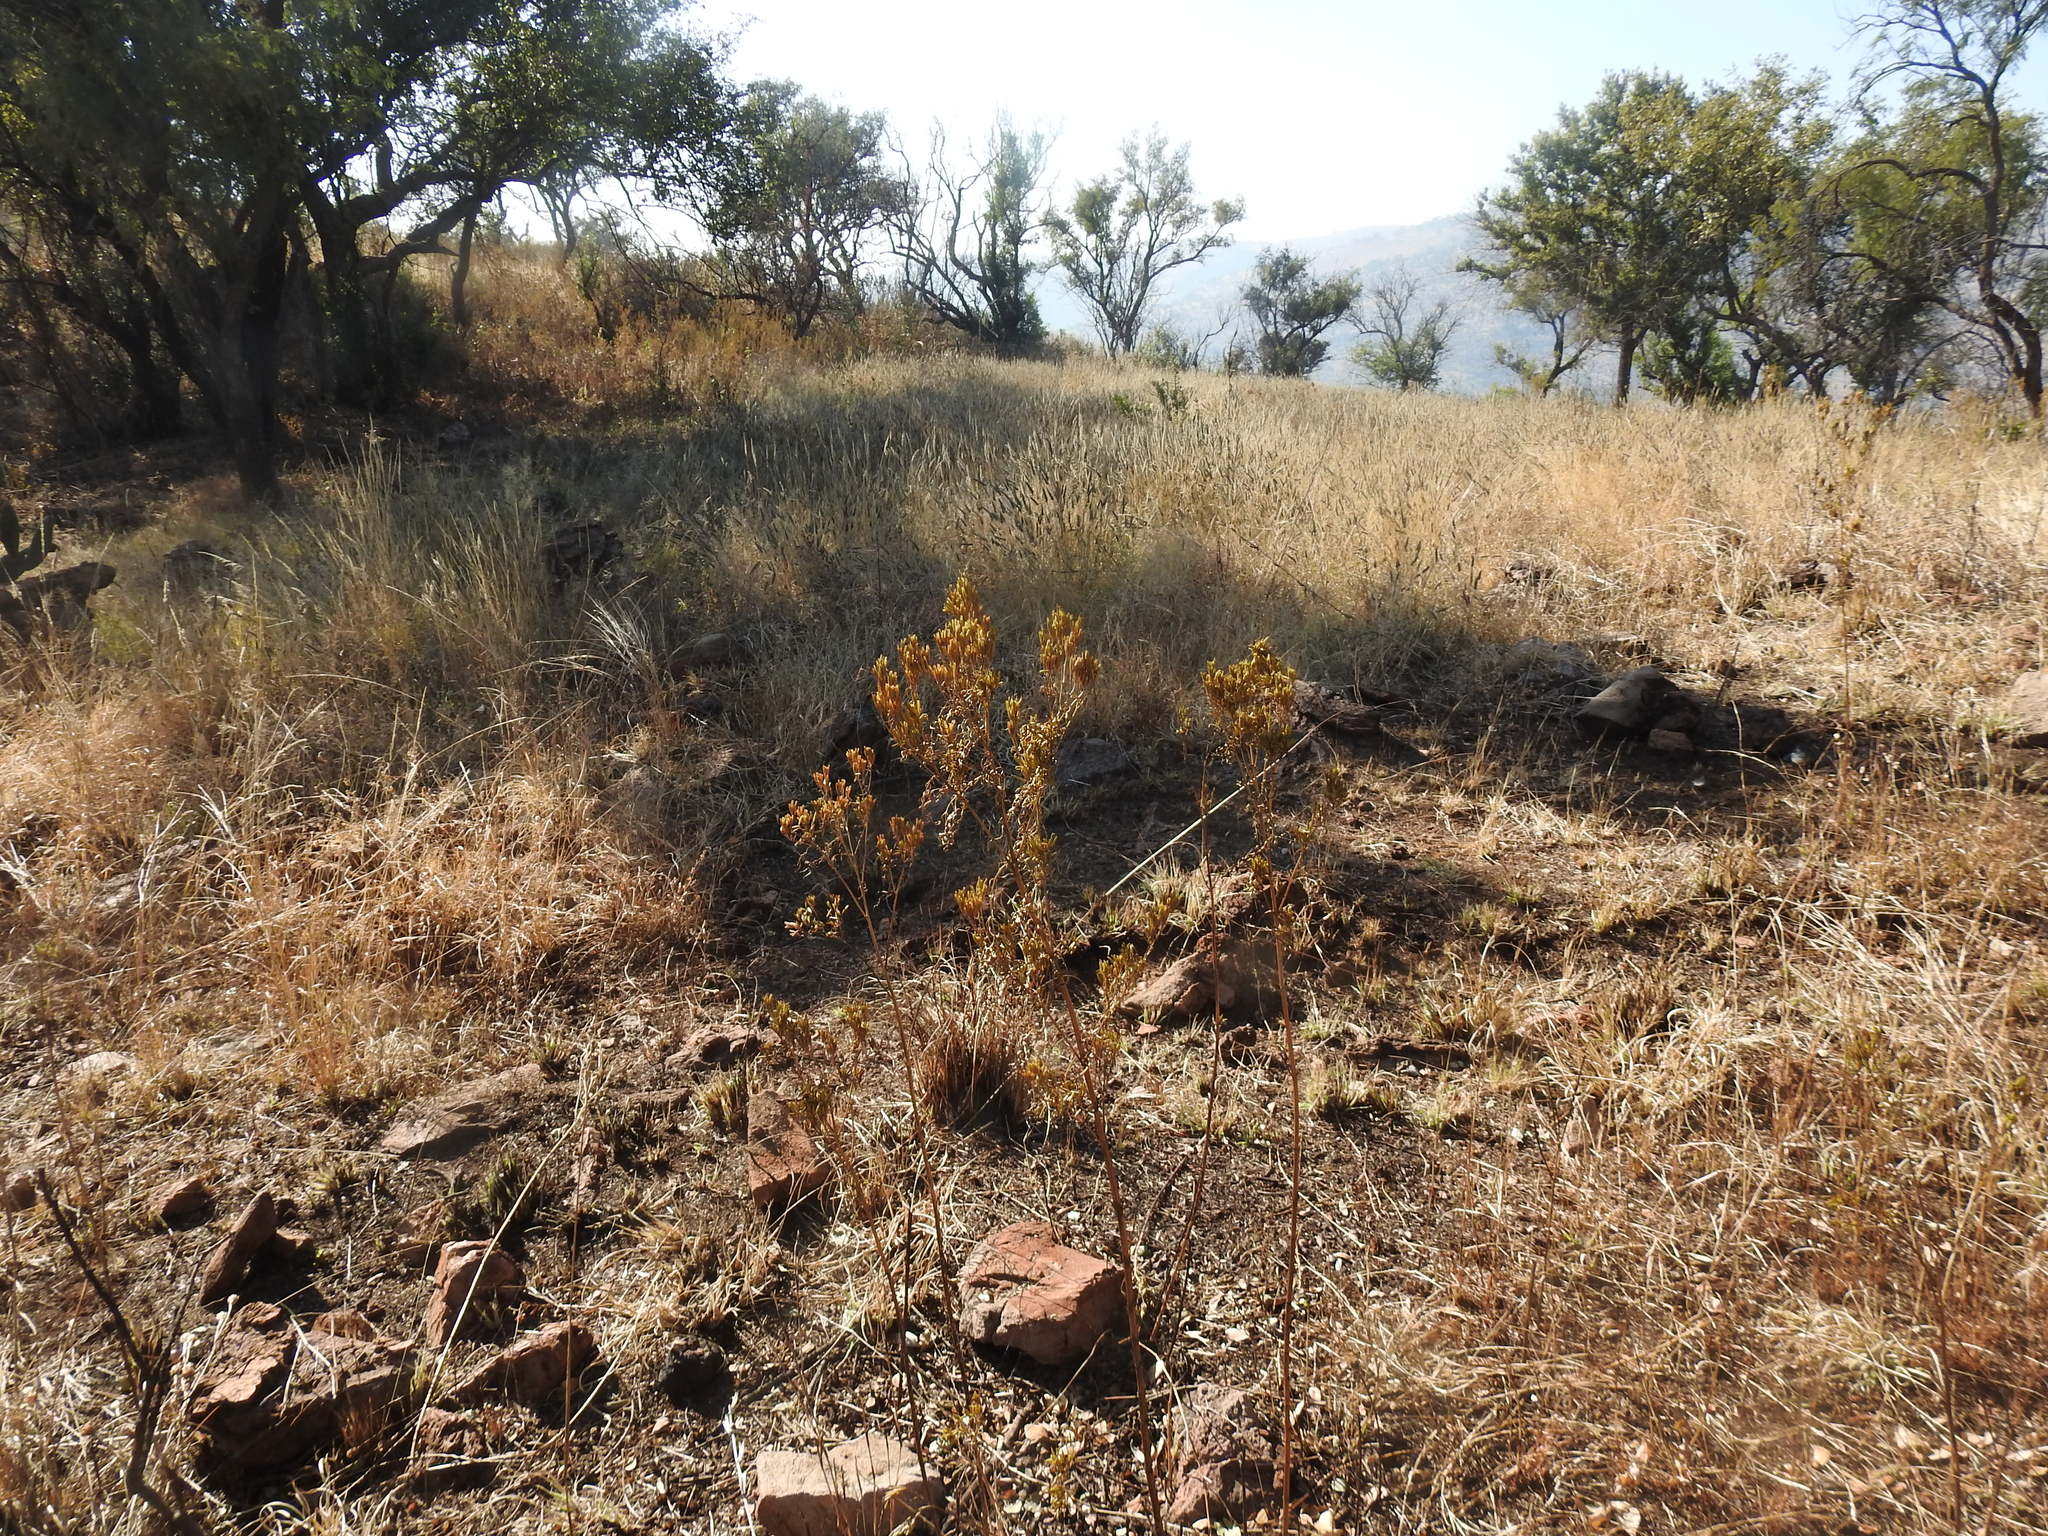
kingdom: Plantae
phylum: Tracheophyta
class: Magnoliopsida
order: Asterales
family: Asteraceae
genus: Tagetes
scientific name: Tagetes minuta
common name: Muster john henry
